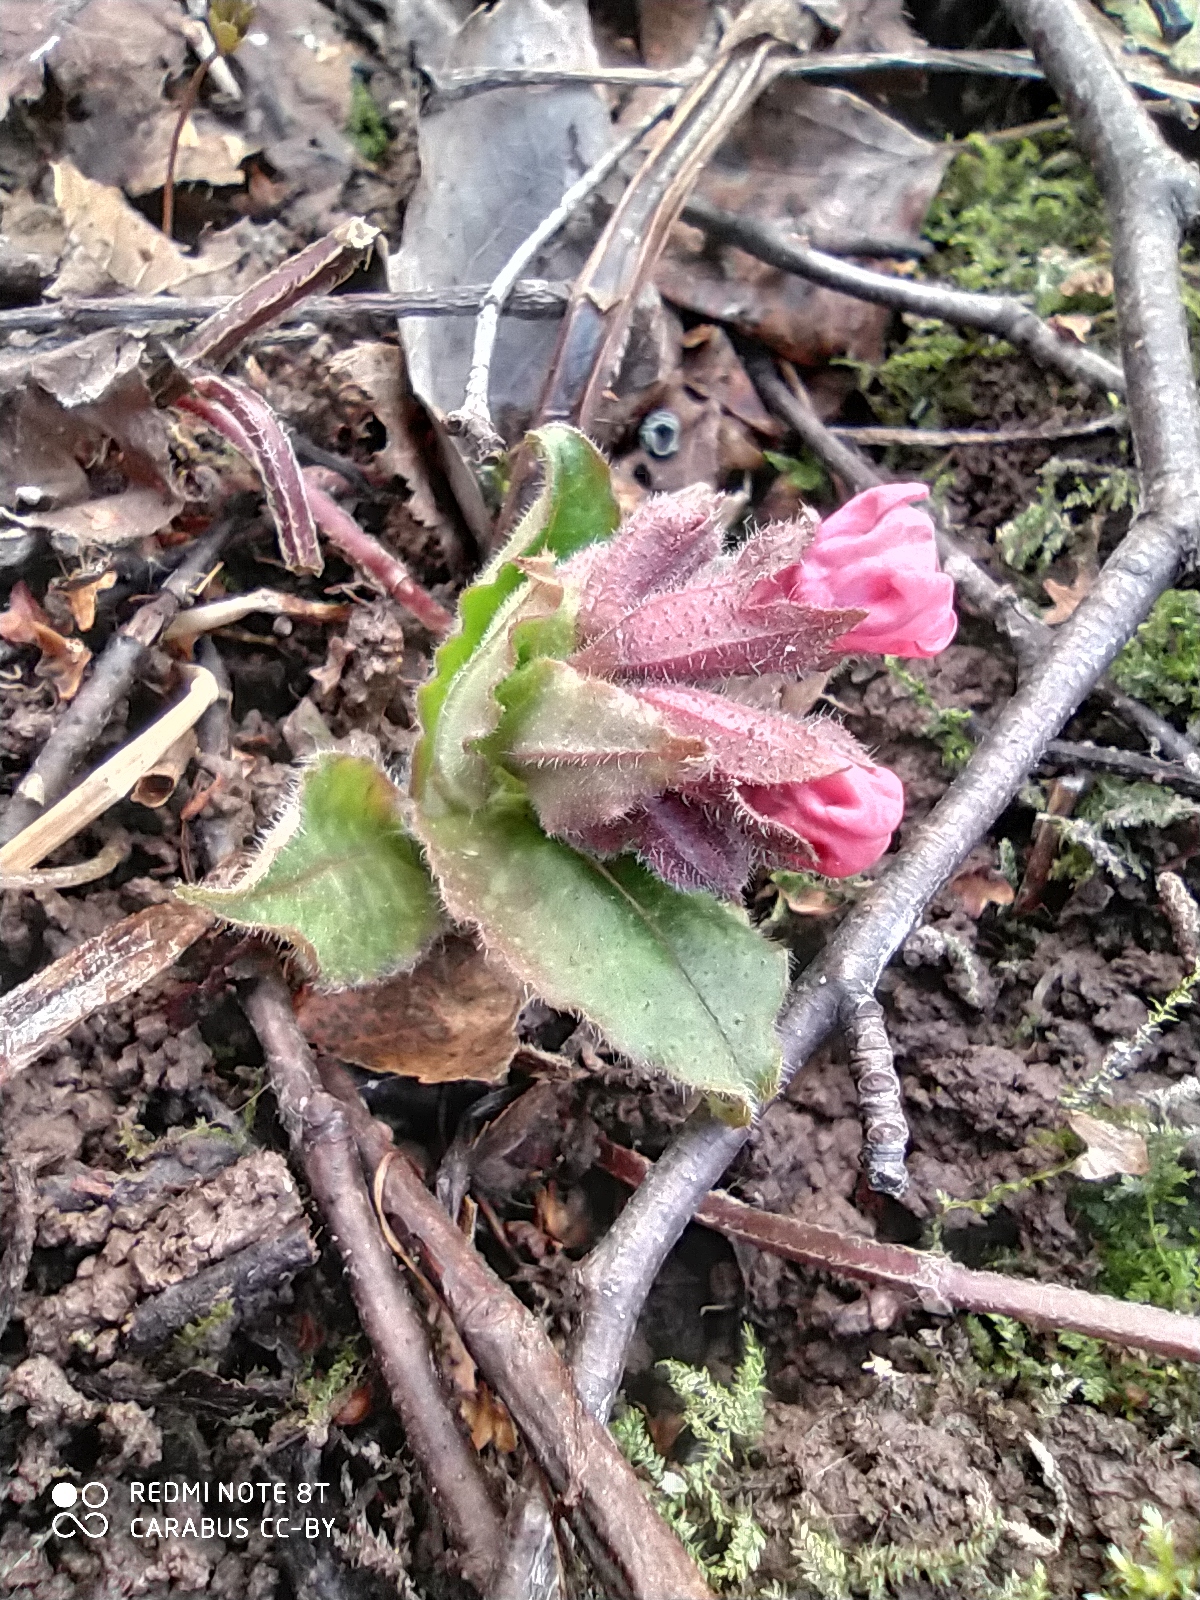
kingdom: Plantae
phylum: Tracheophyta
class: Magnoliopsida
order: Boraginales
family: Boraginaceae
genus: Pulmonaria
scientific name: Pulmonaria obscura
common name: Suffolk lungwort
